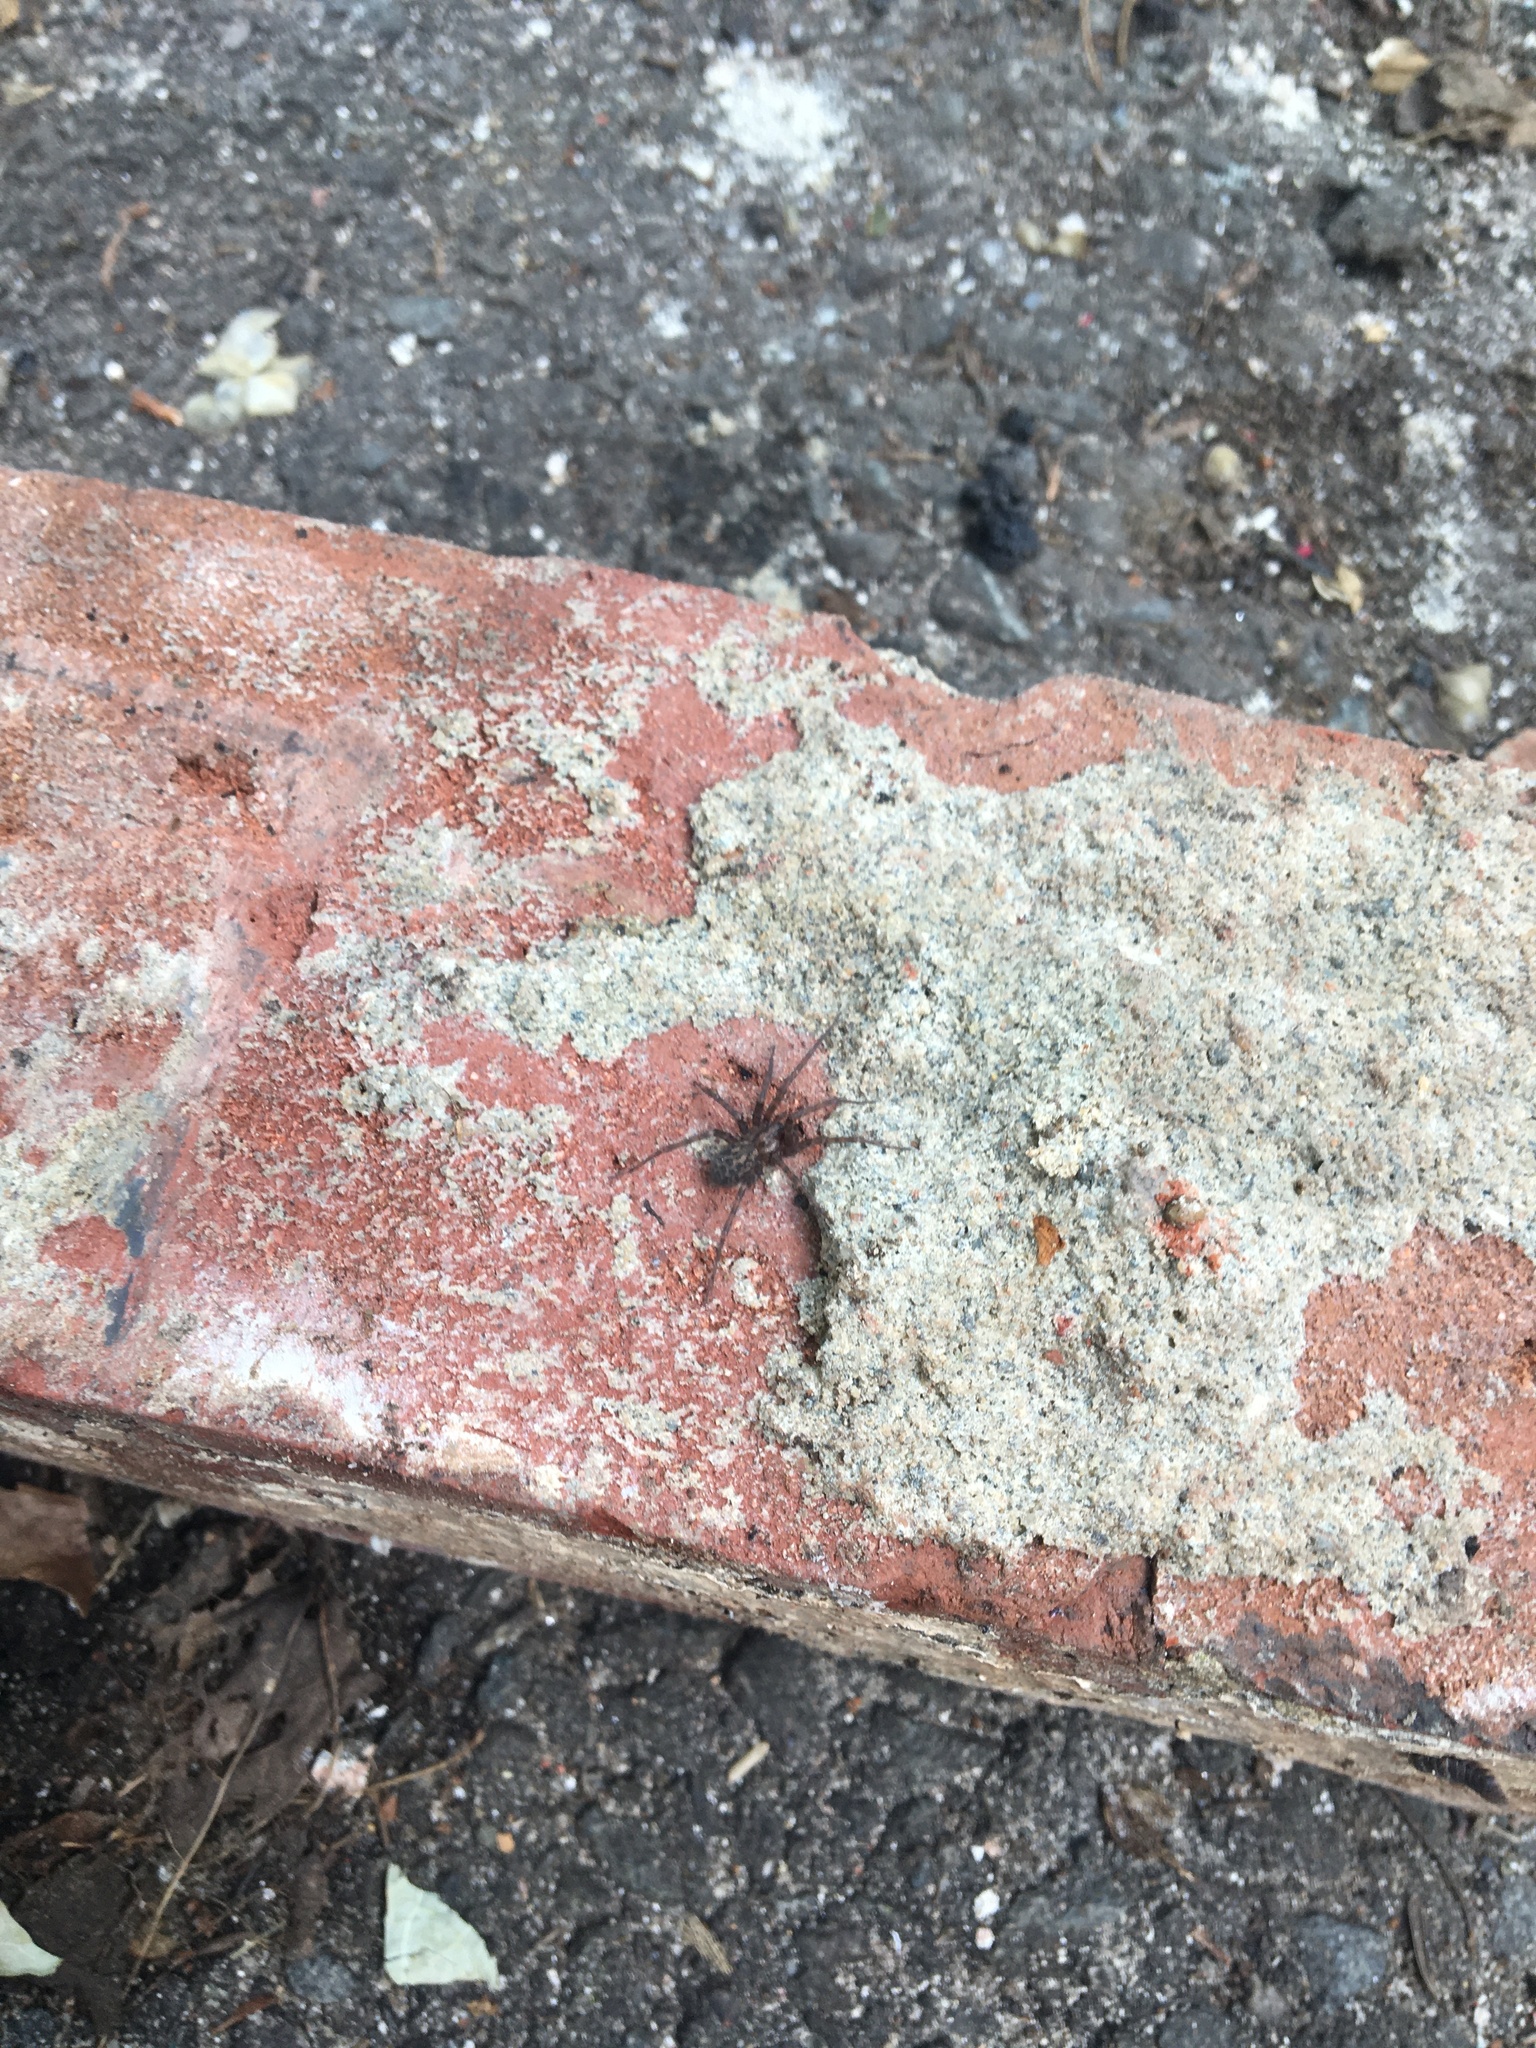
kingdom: Animalia
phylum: Arthropoda
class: Arachnida
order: Araneae
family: Agelenidae
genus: Tegenaria
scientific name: Tegenaria domestica
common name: Barn funnel weaver
